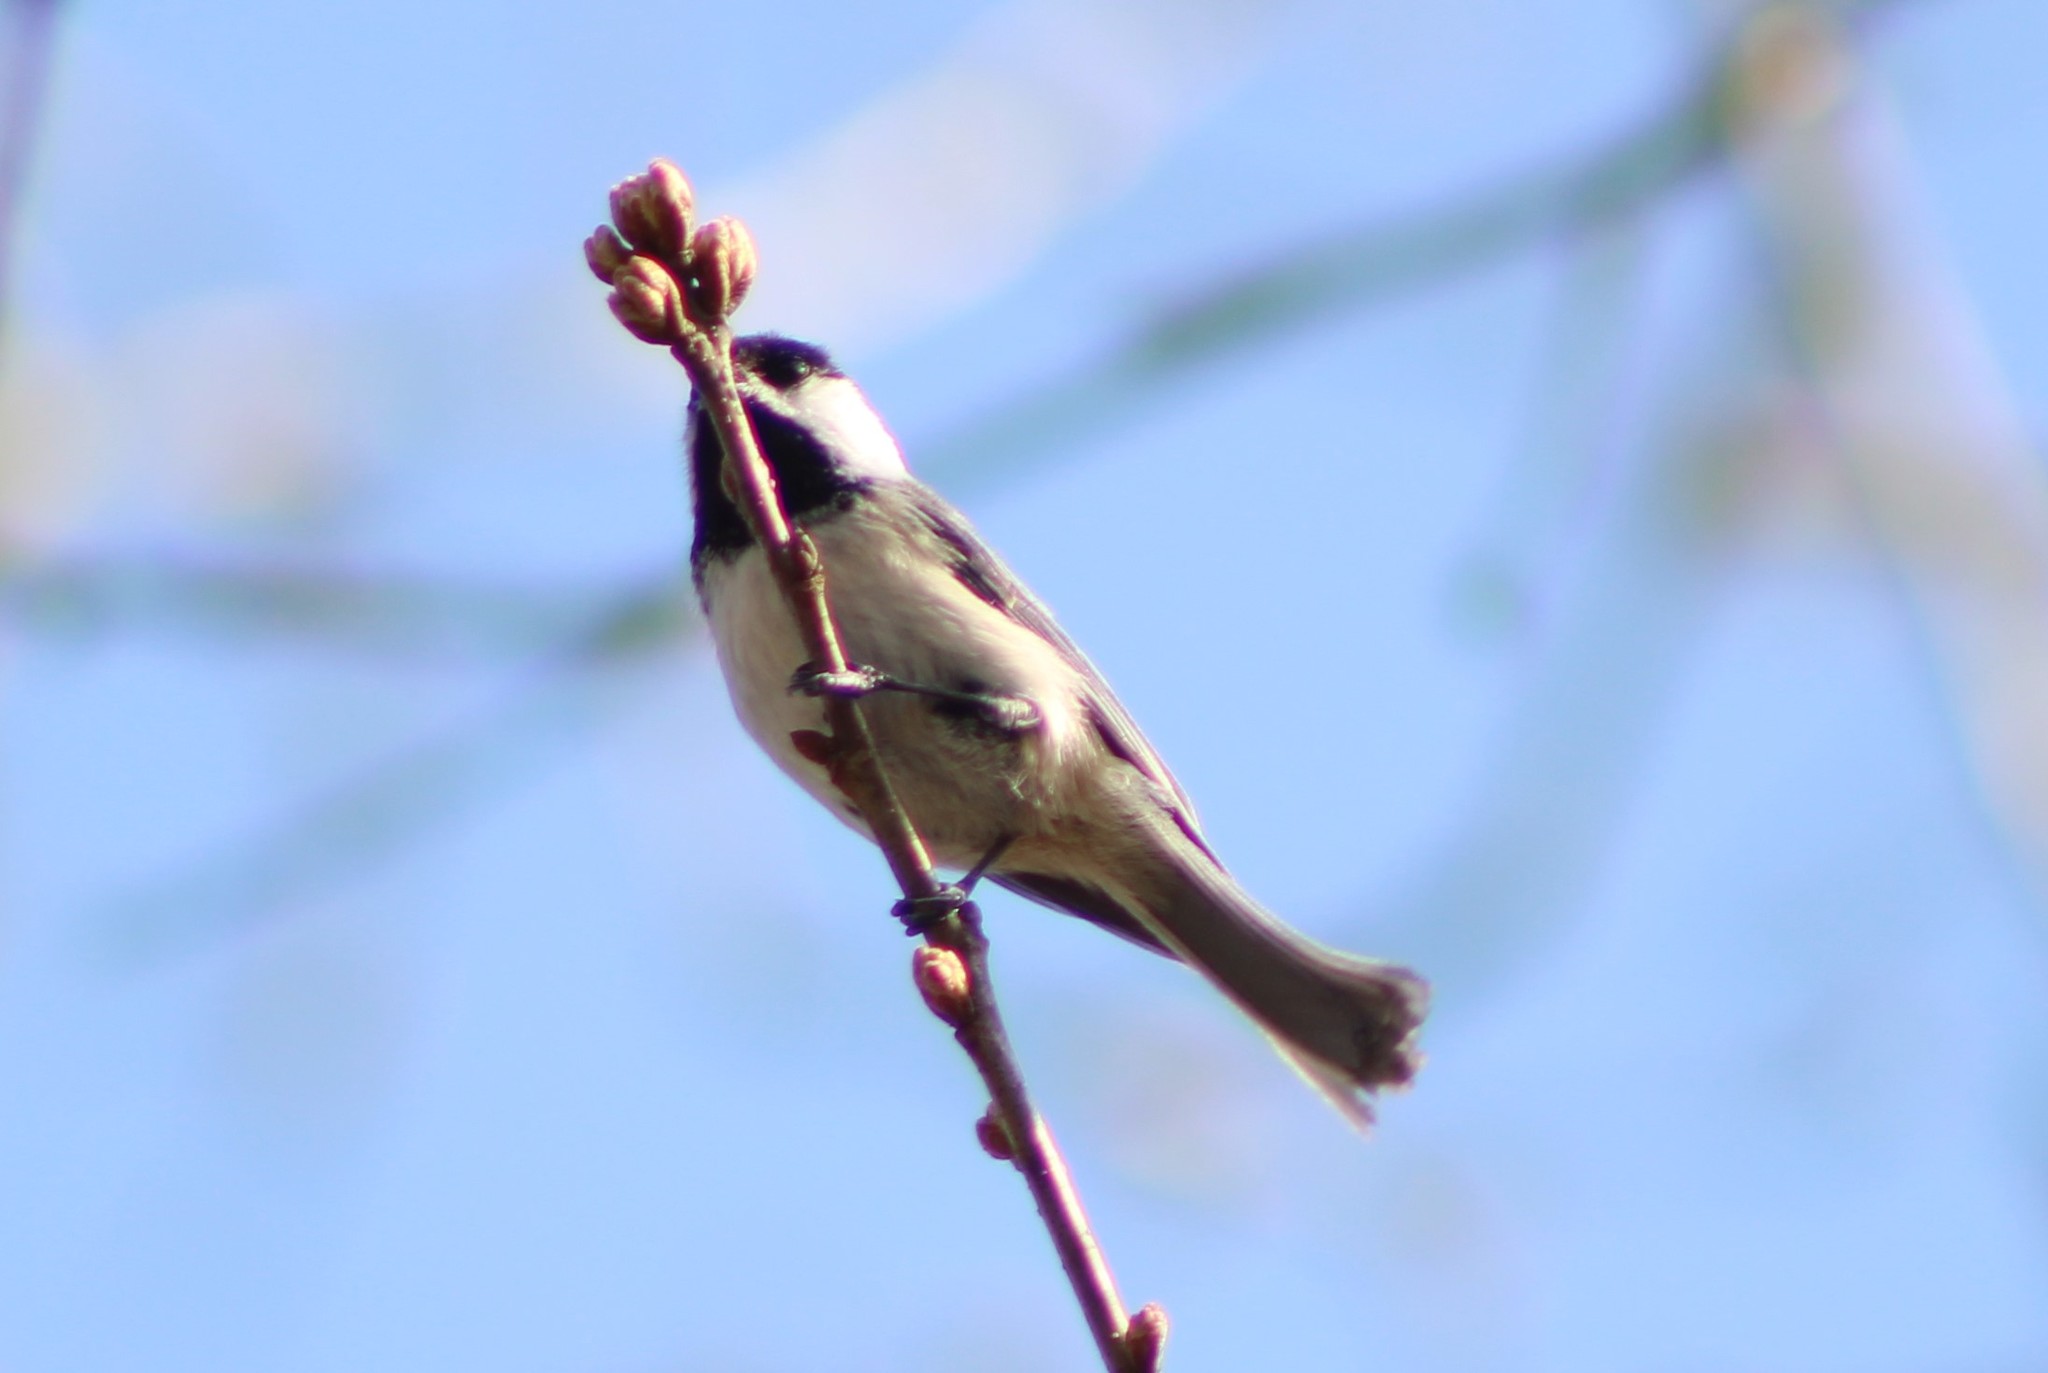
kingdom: Animalia
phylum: Chordata
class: Aves
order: Passeriformes
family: Paridae
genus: Poecile
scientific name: Poecile atricapillus
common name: Black-capped chickadee
